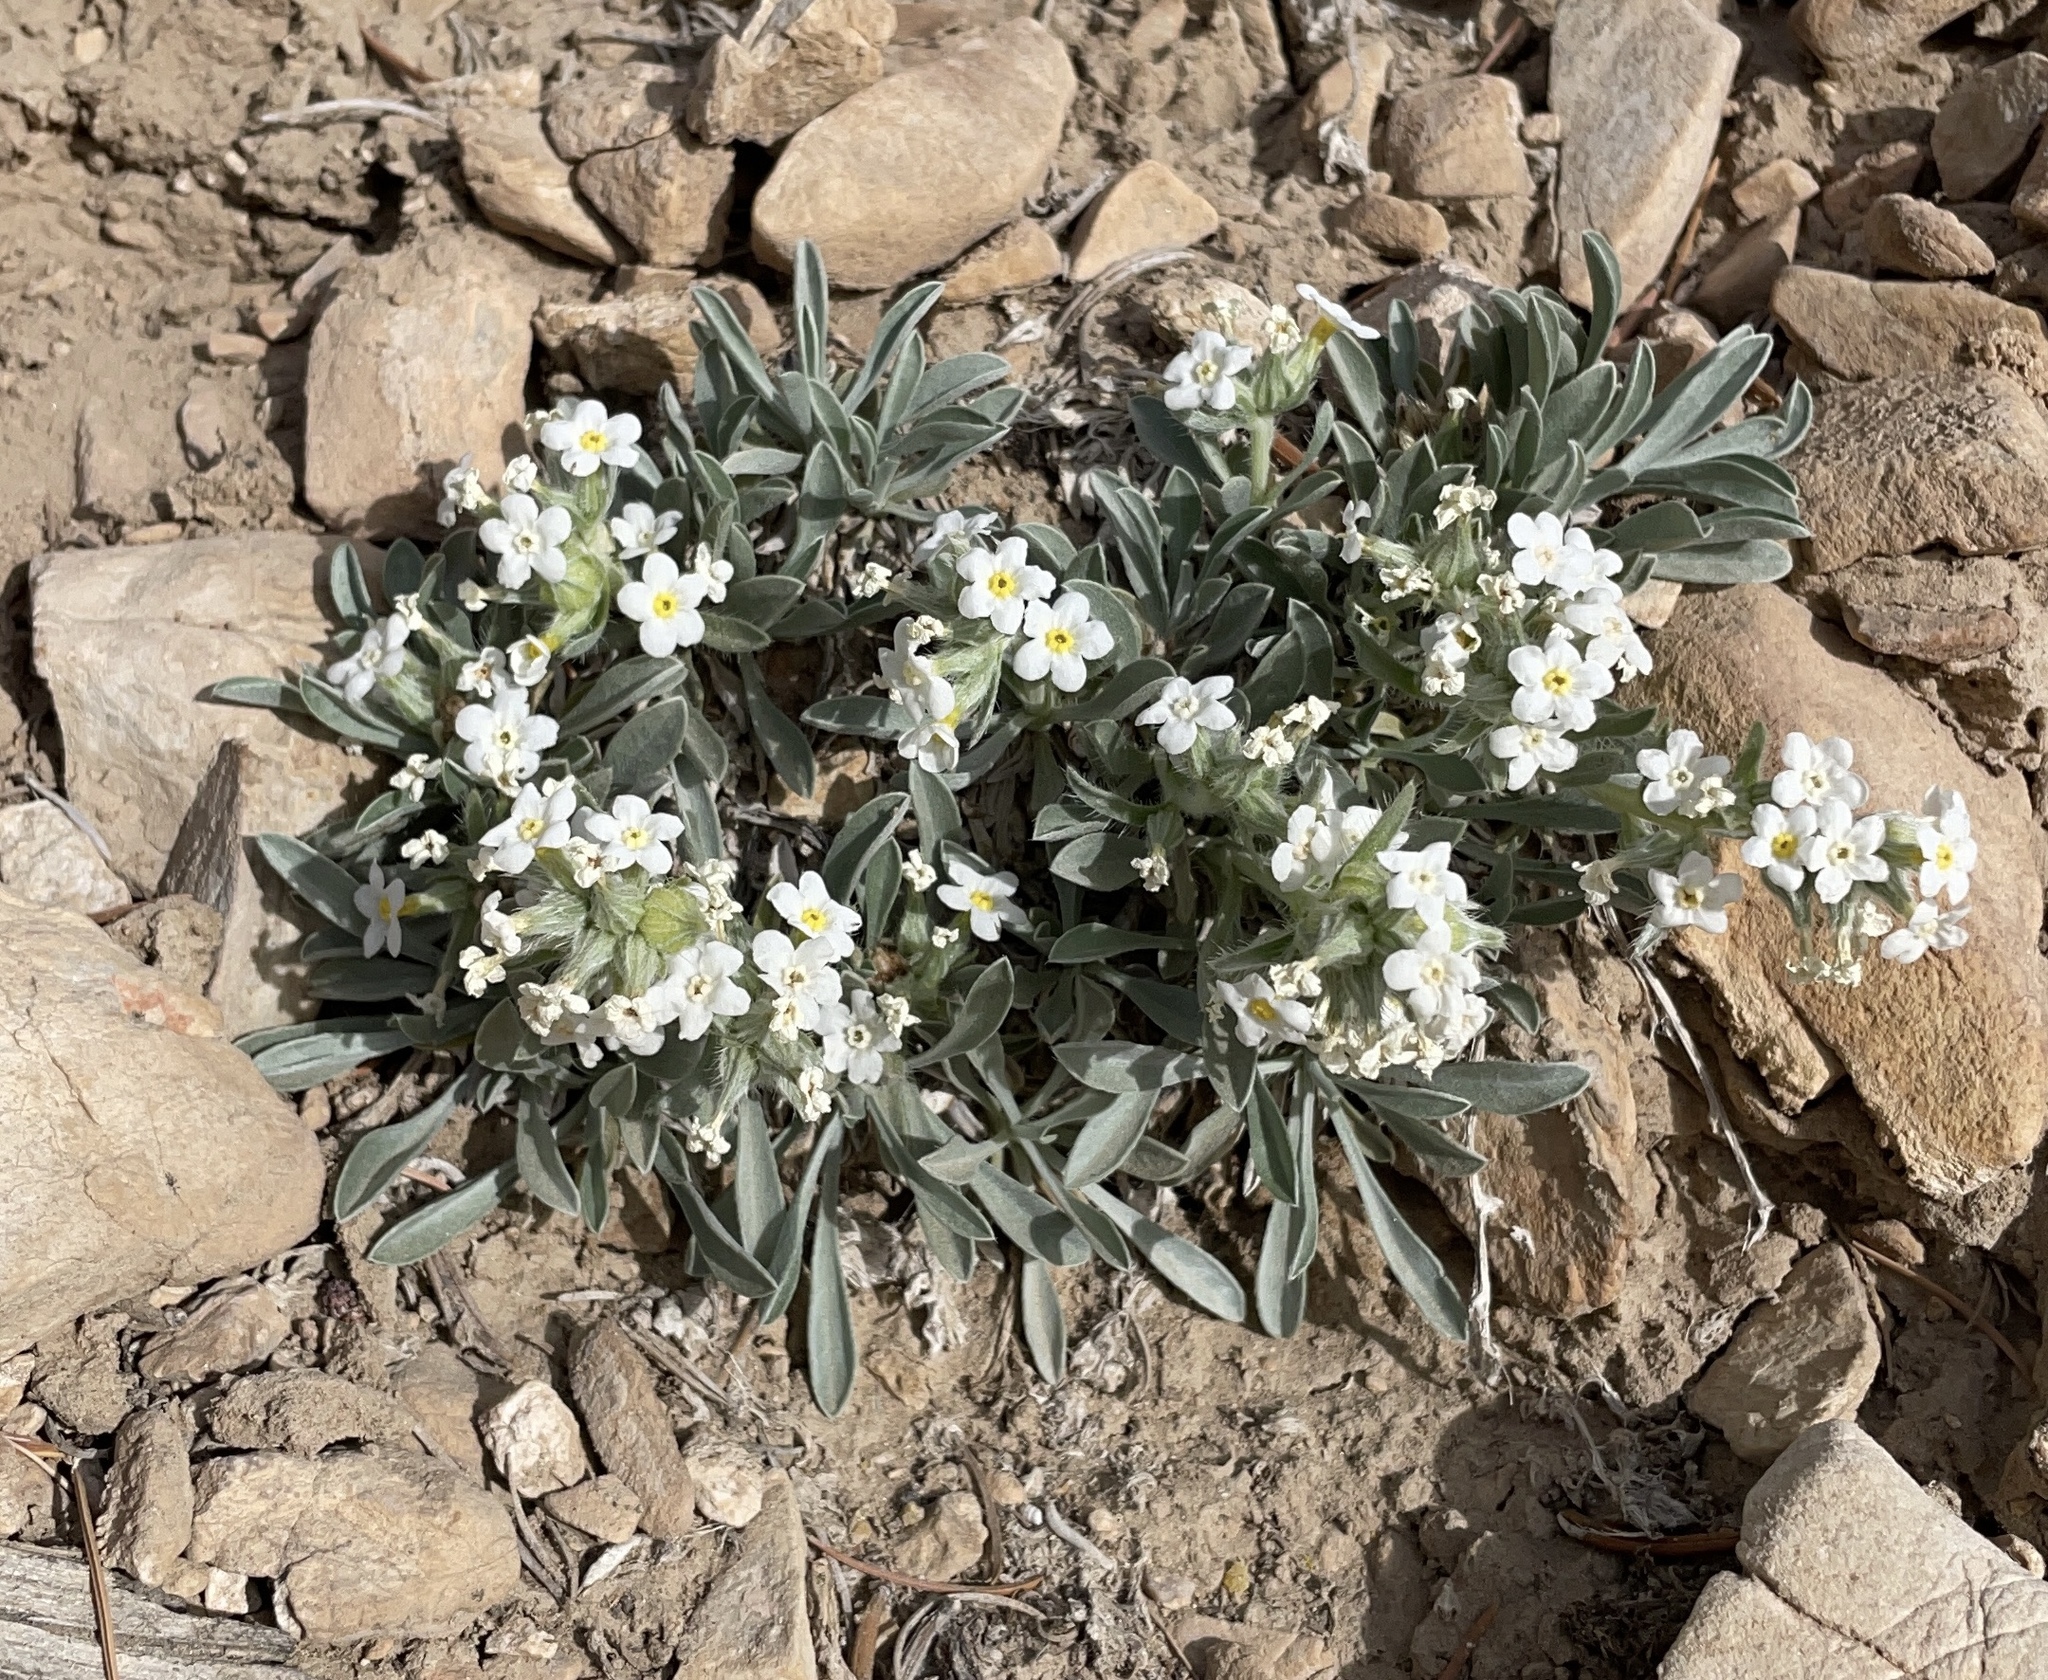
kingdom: Plantae
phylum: Tracheophyta
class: Magnoliopsida
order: Boraginales
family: Boraginaceae
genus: Oreocarya
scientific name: Oreocarya flavoculata
